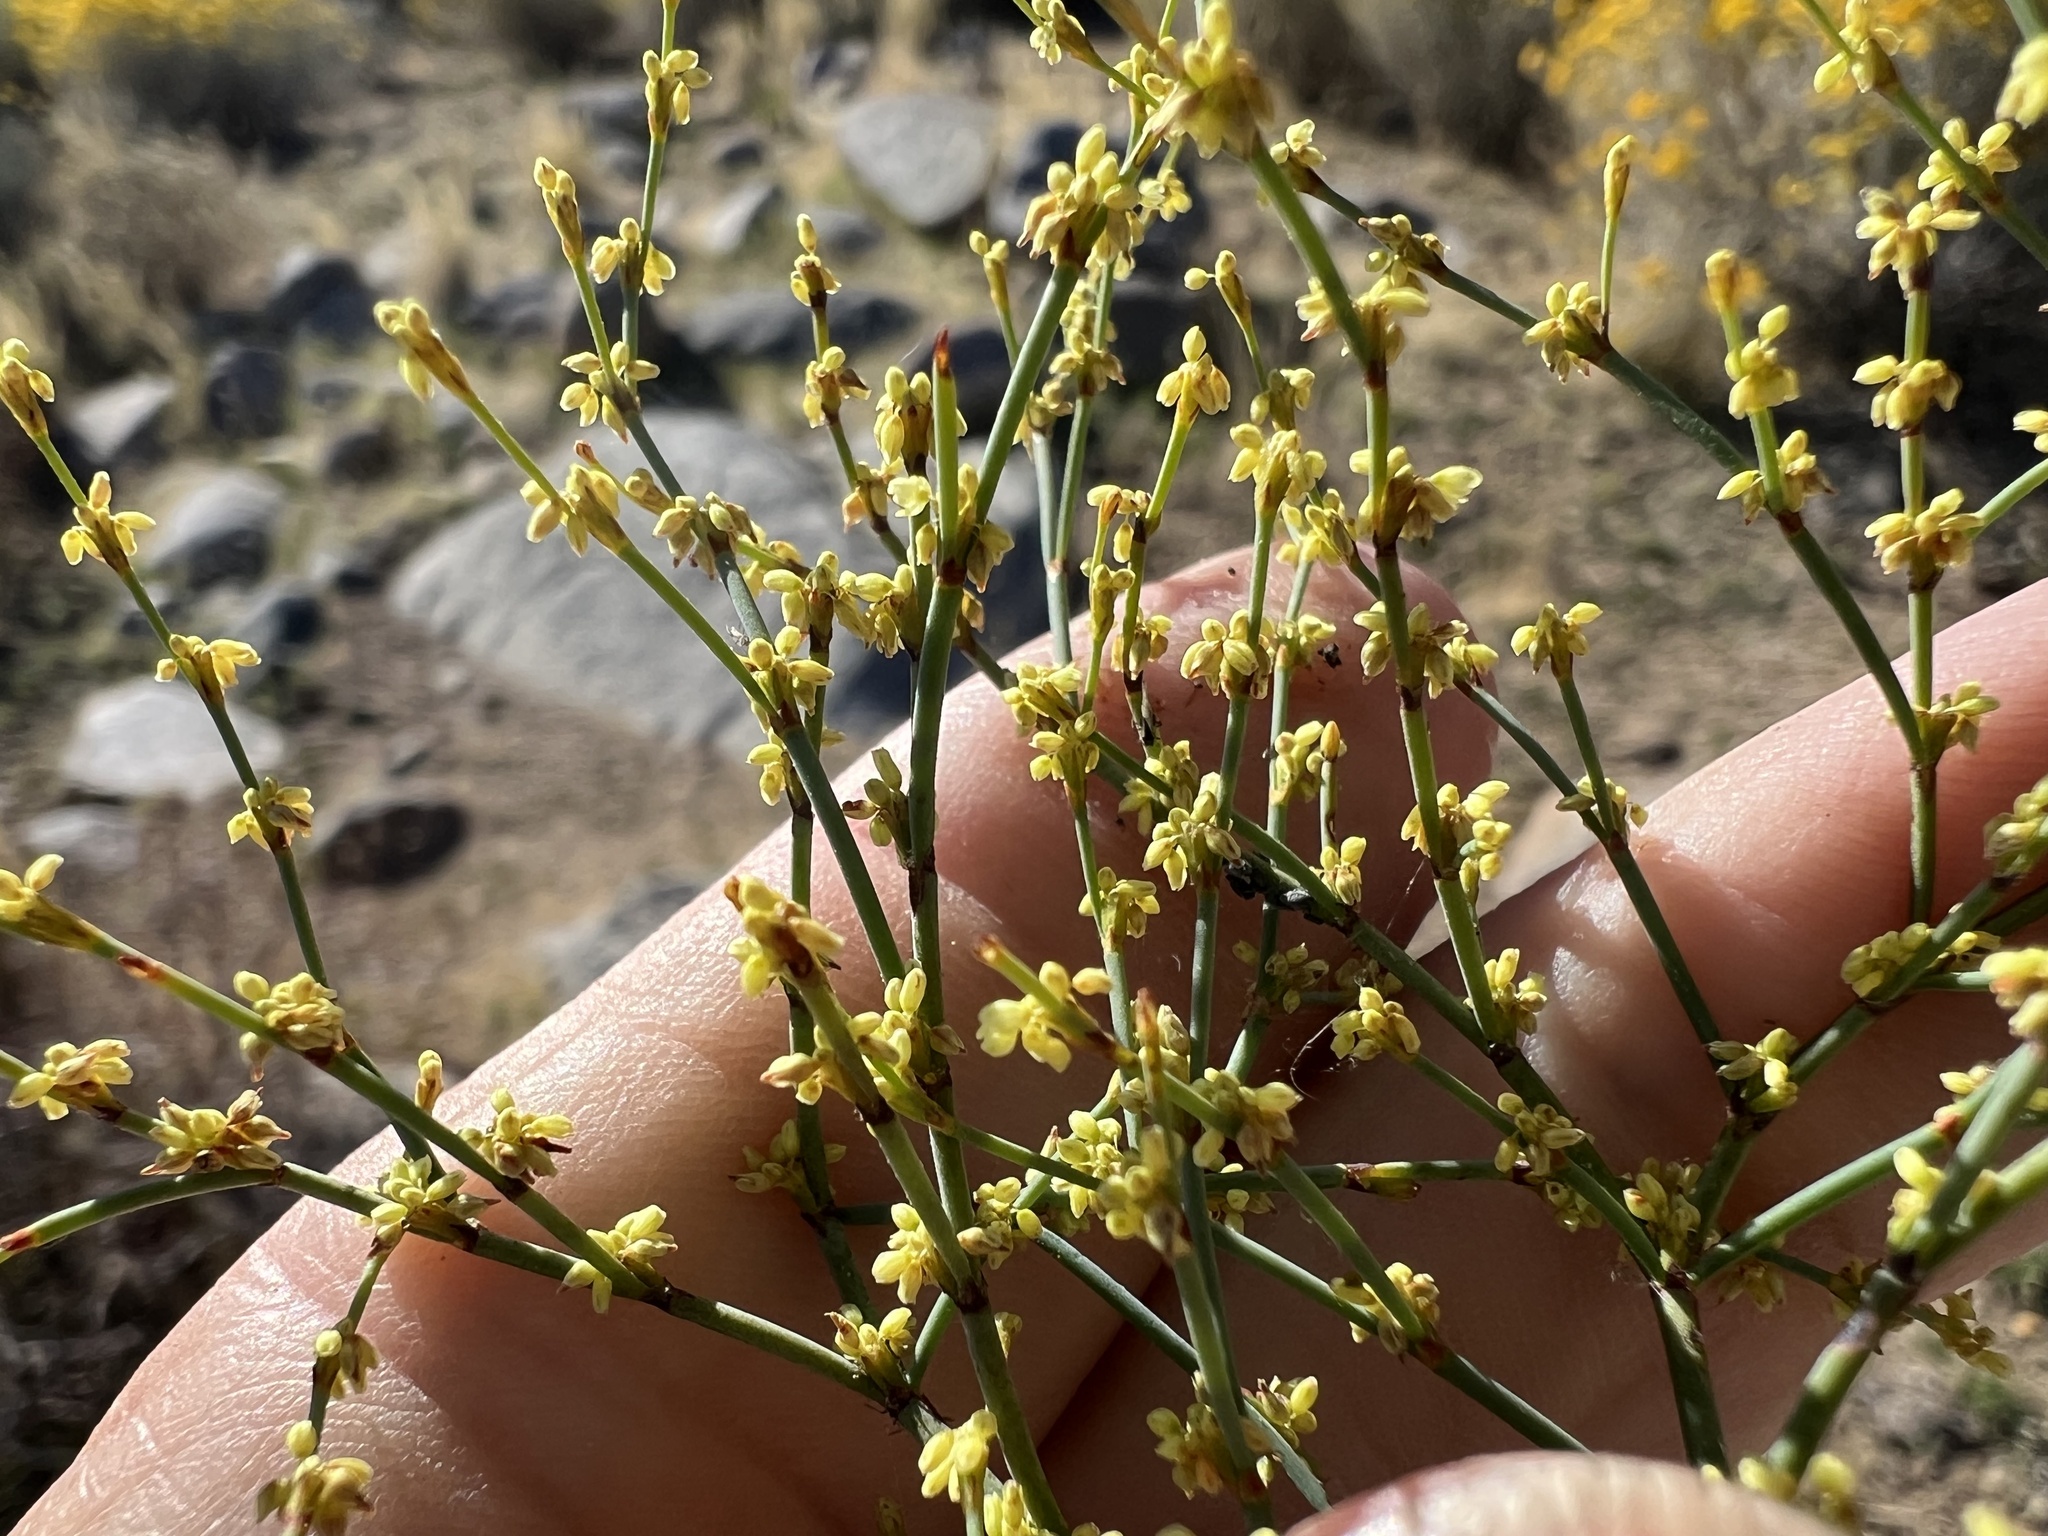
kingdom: Plantae
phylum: Tracheophyta
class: Magnoliopsida
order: Caryophyllales
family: Polygonaceae
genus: Eriogonum
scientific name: Eriogonum brachyanthum
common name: Short-flower wild buckwheat
